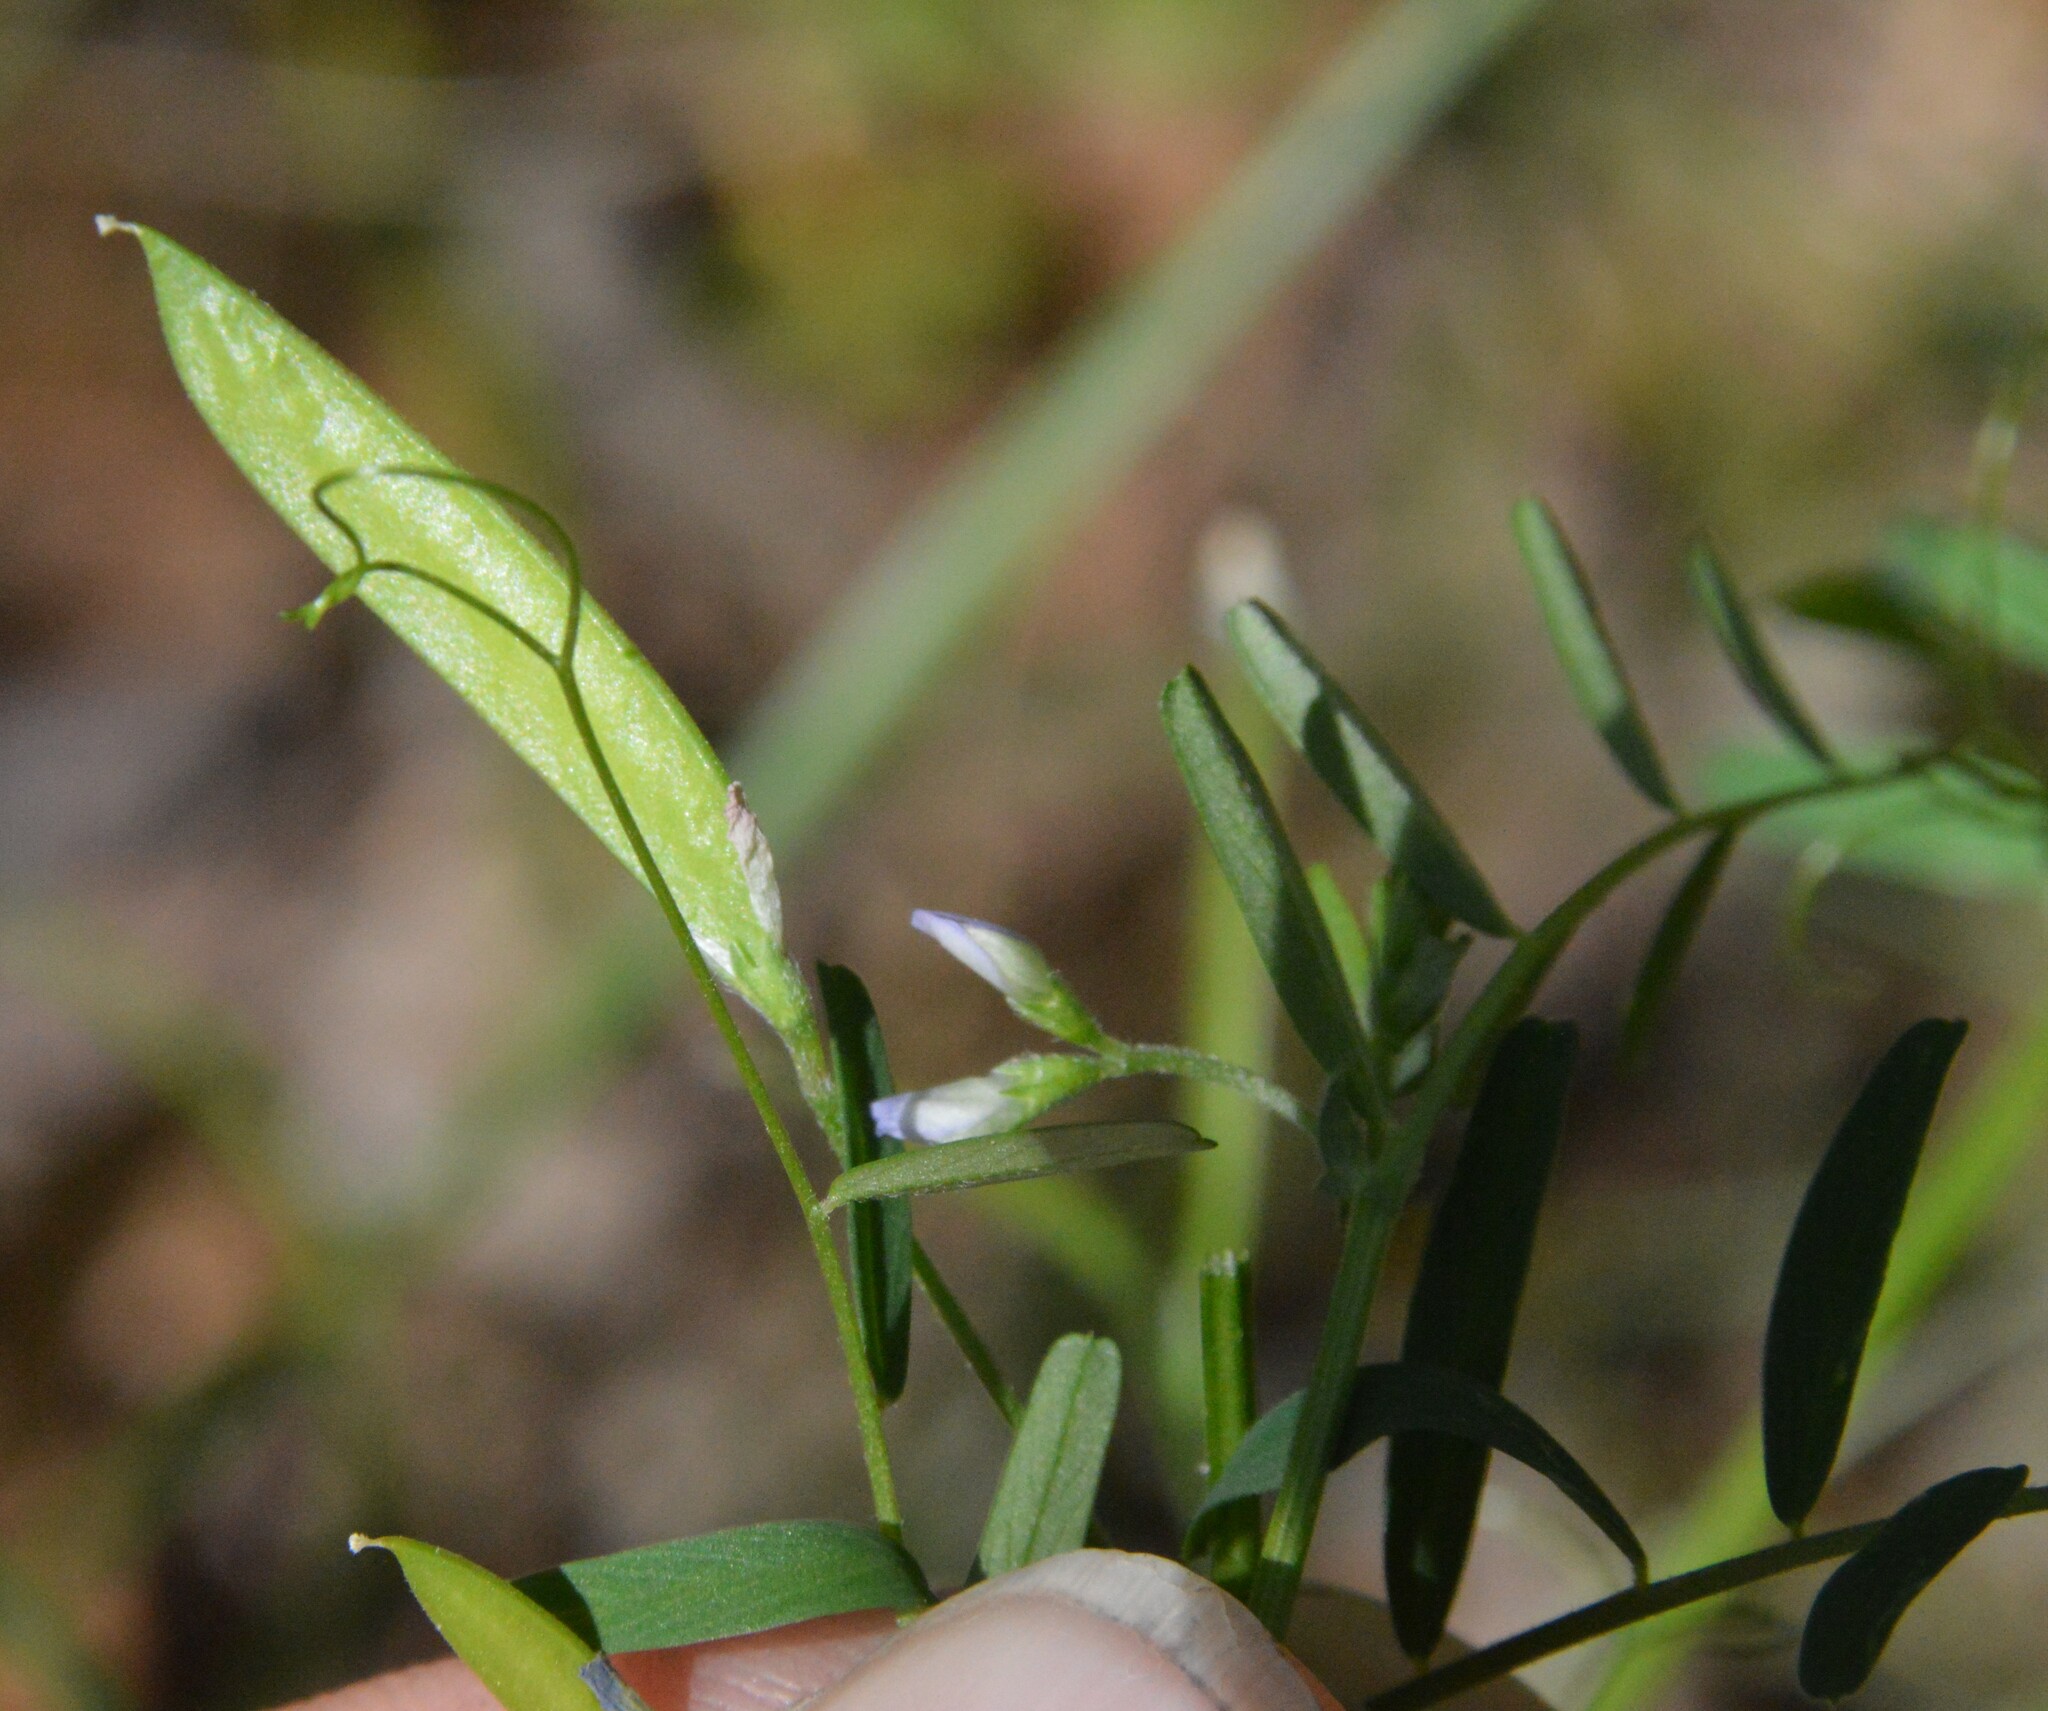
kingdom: Plantae
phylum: Tracheophyta
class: Magnoliopsida
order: Fabales
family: Fabaceae
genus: Vicia
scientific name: Vicia minutiflora
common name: Pygmy-flower vetch
